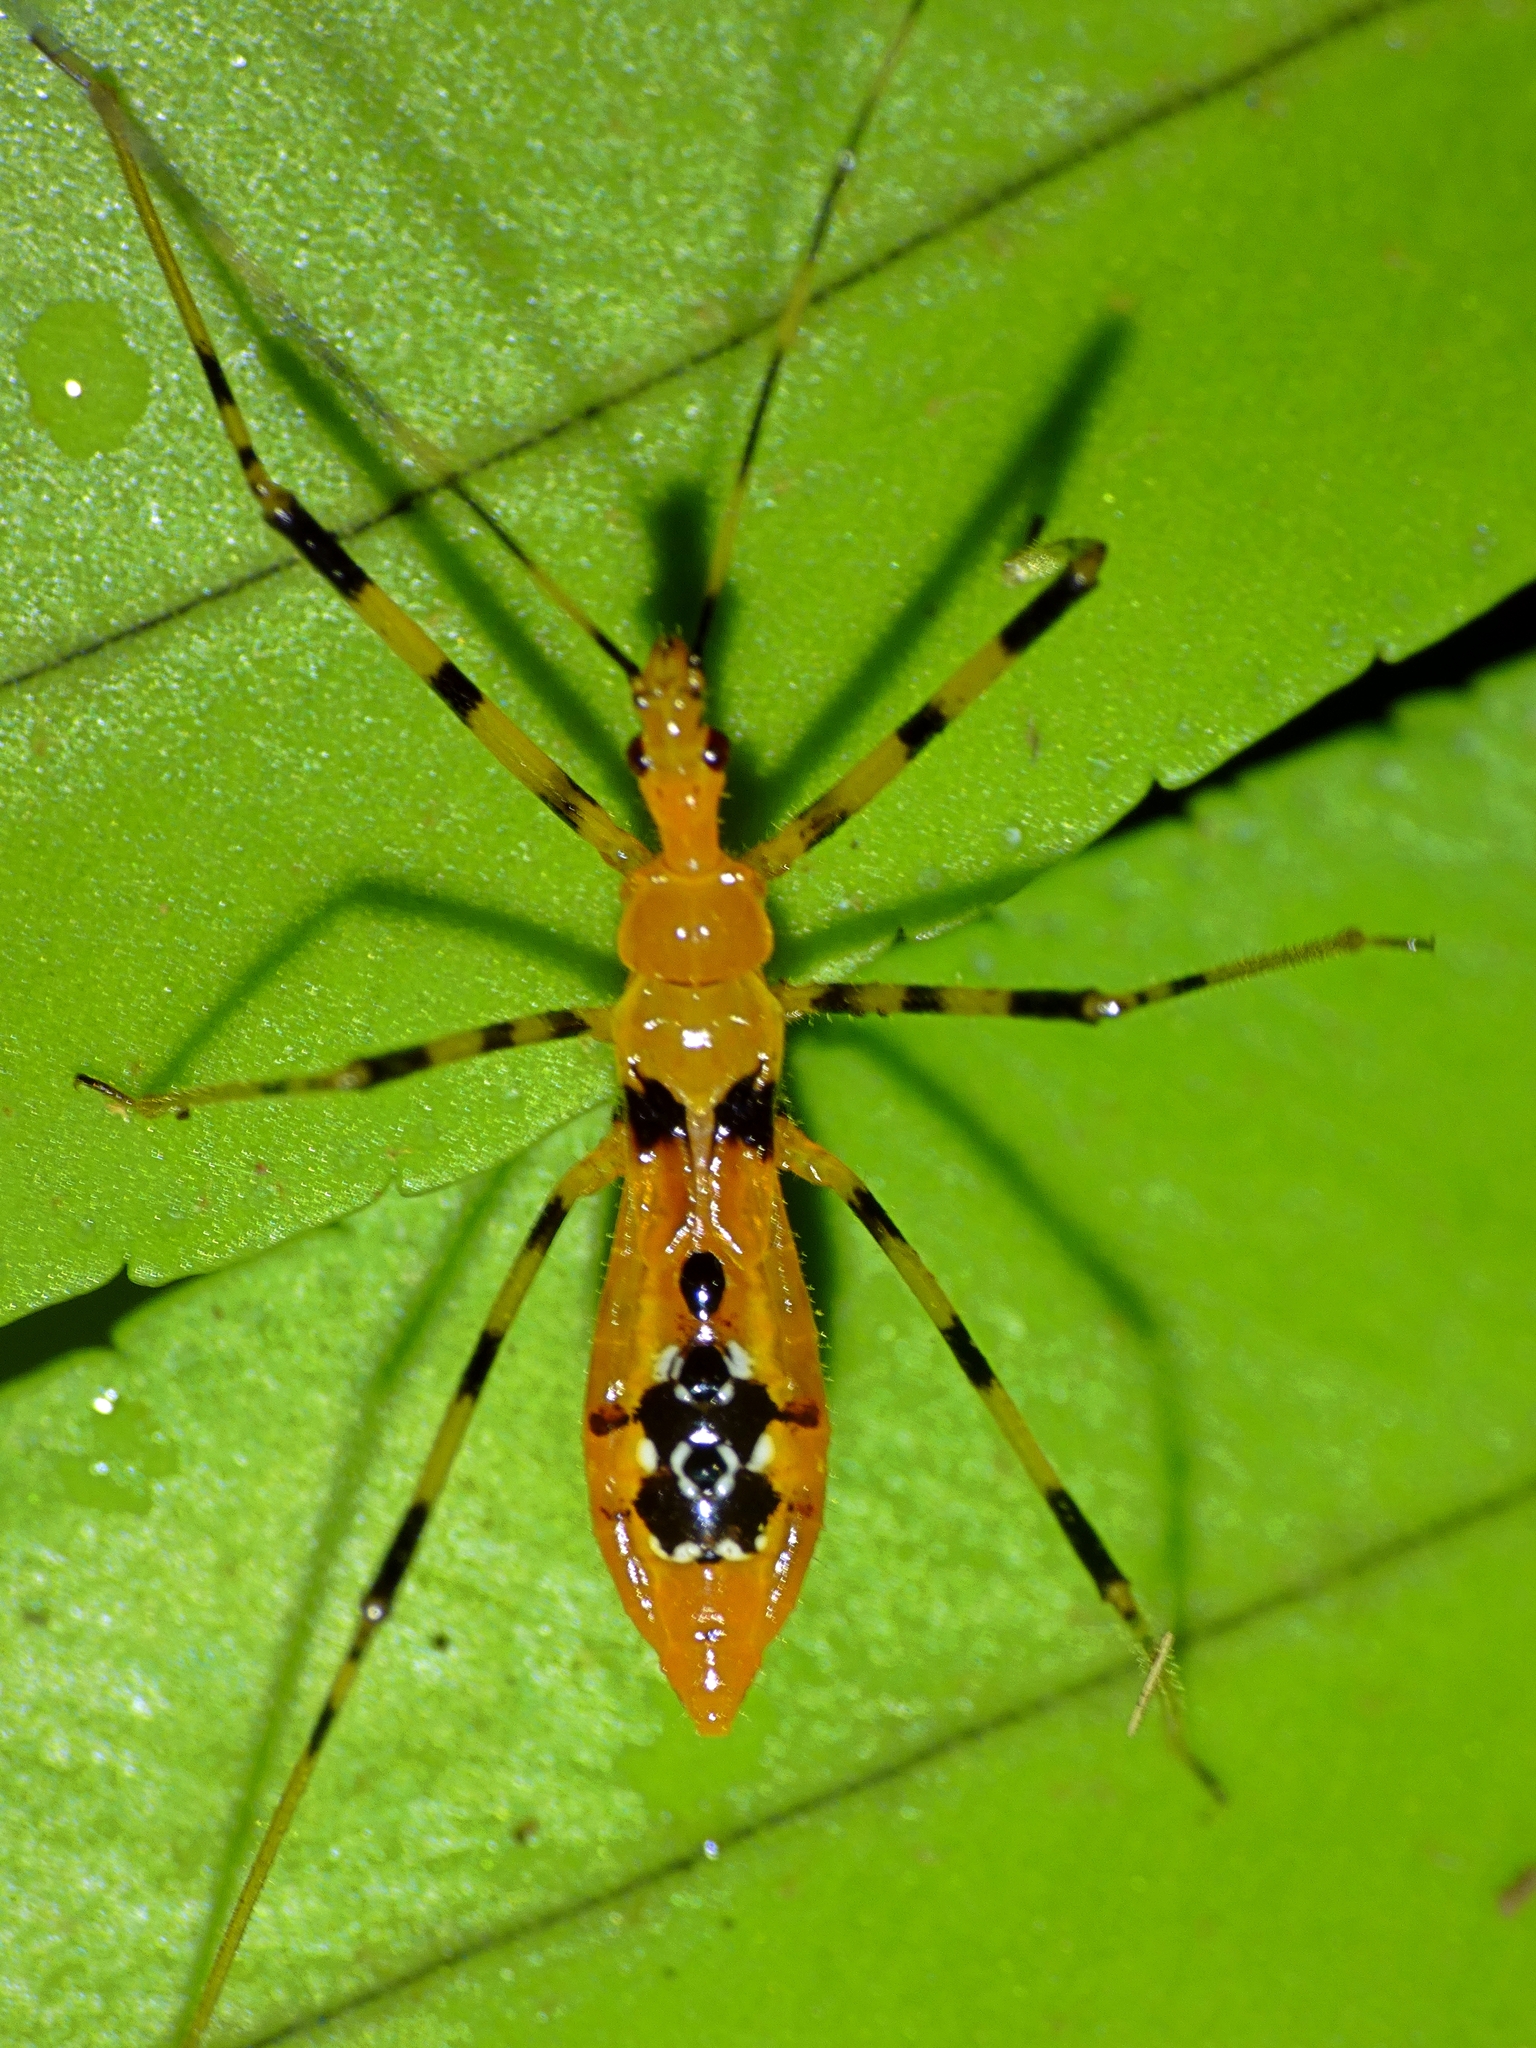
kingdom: Animalia
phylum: Arthropoda
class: Insecta
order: Hemiptera
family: Reduviidae
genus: Euagoras
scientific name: Euagoras dorycus
